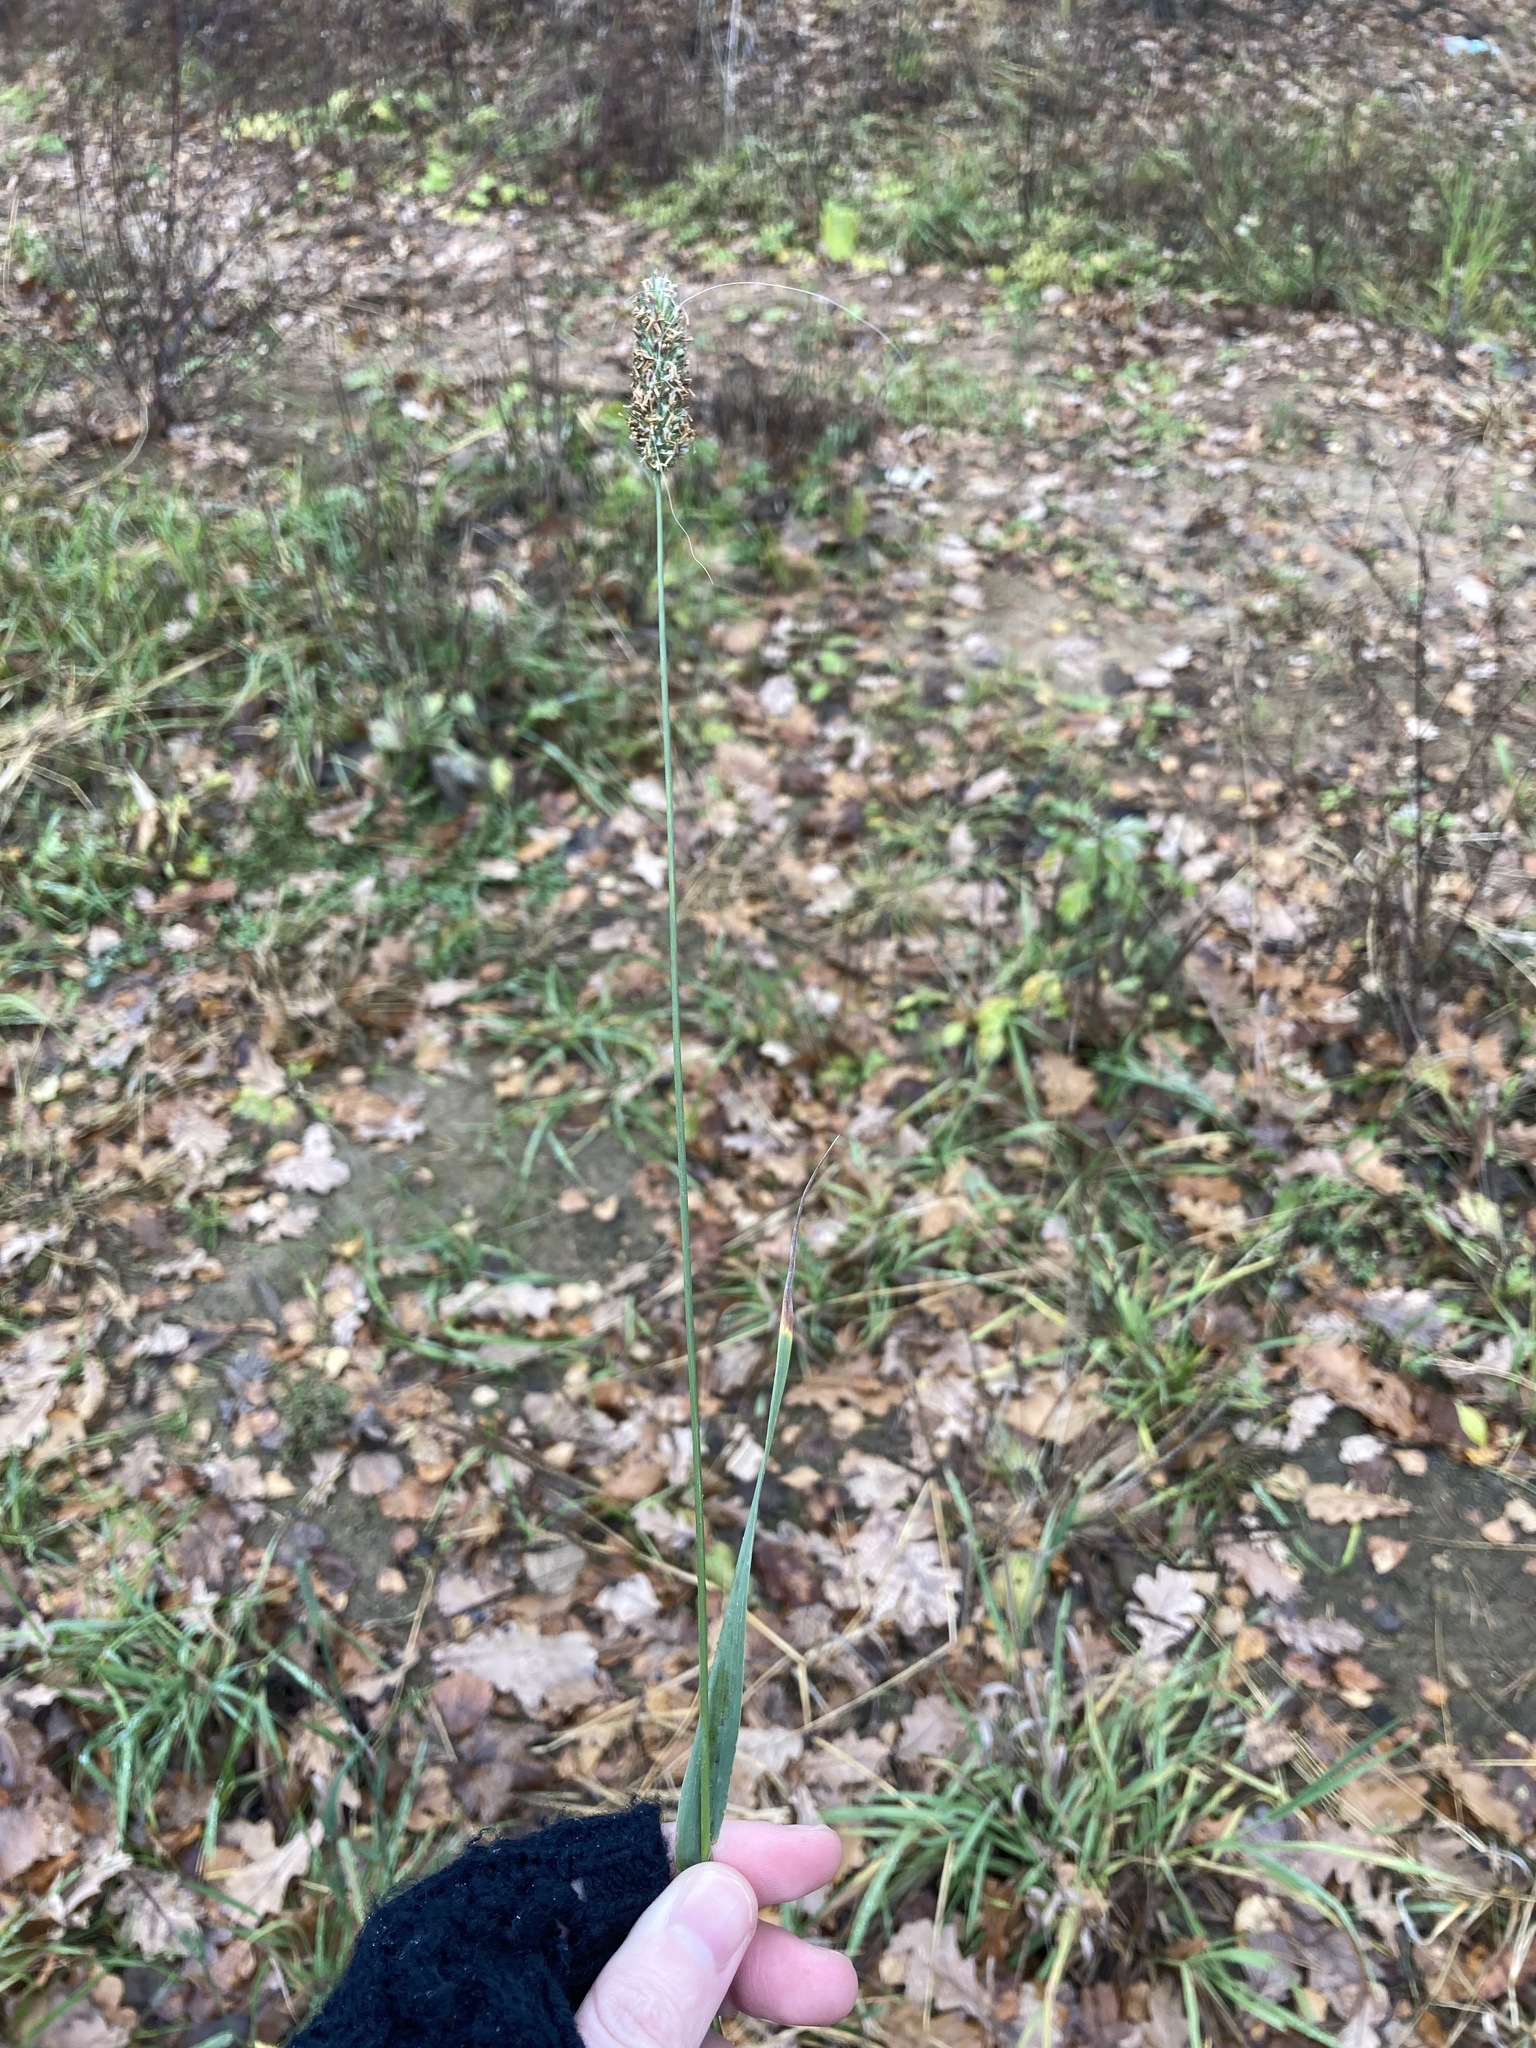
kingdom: Plantae
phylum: Tracheophyta
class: Liliopsida
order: Poales
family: Poaceae
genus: Phleum
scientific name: Phleum pratense
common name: Timothy grass
